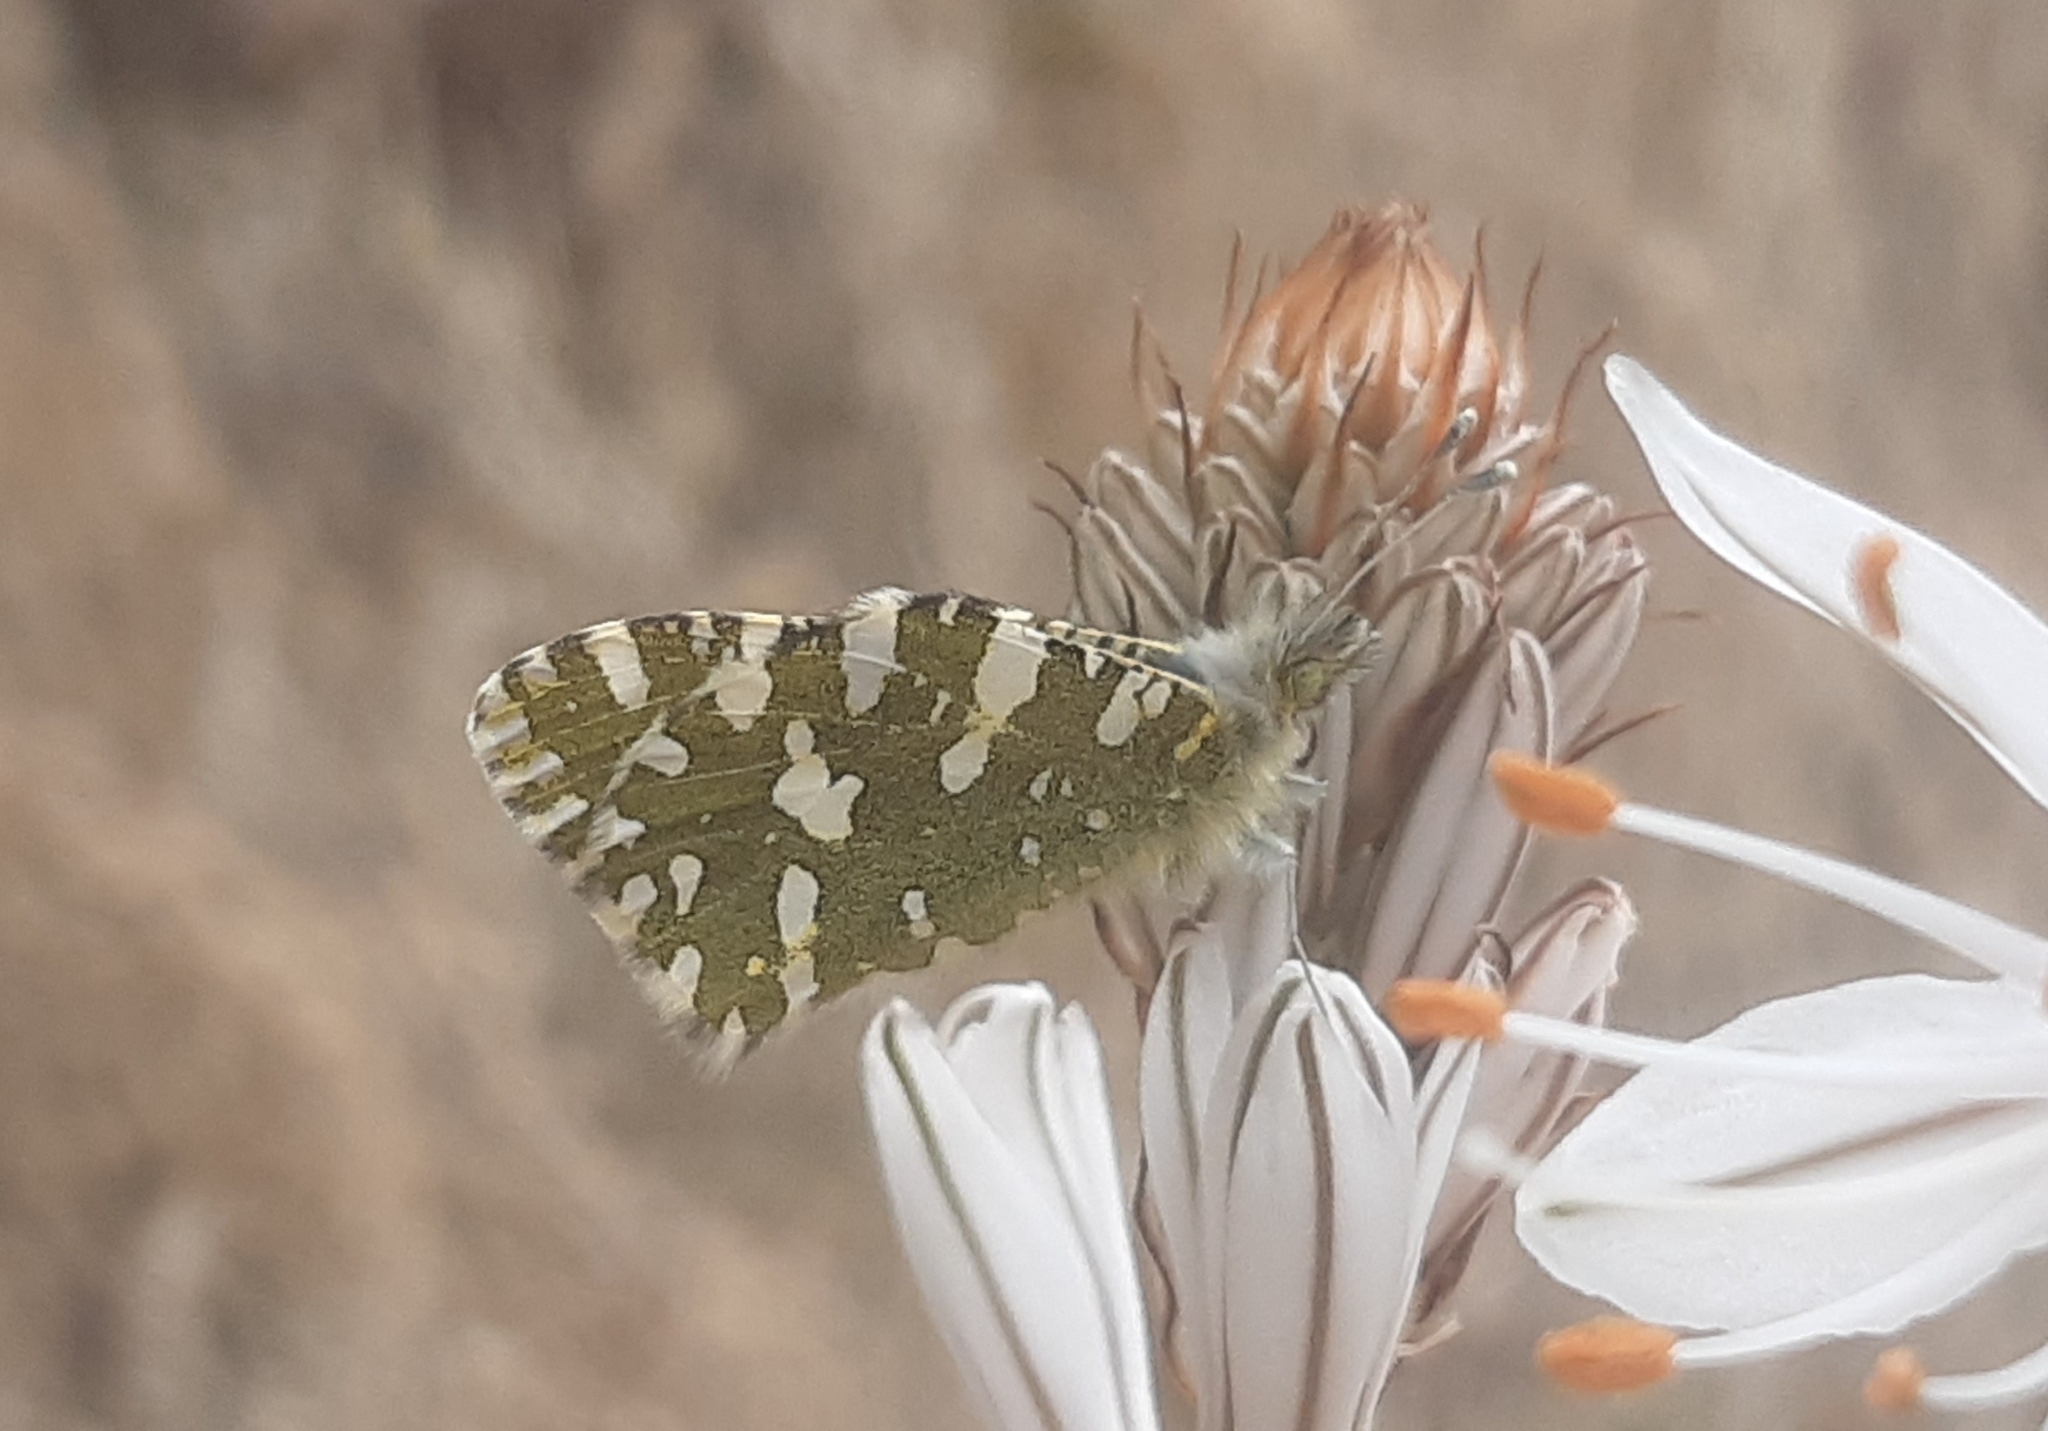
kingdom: Animalia
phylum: Arthropoda
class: Insecta
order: Lepidoptera
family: Pieridae
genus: Euchloe
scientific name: Euchloe crameri
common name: Western dappled white
